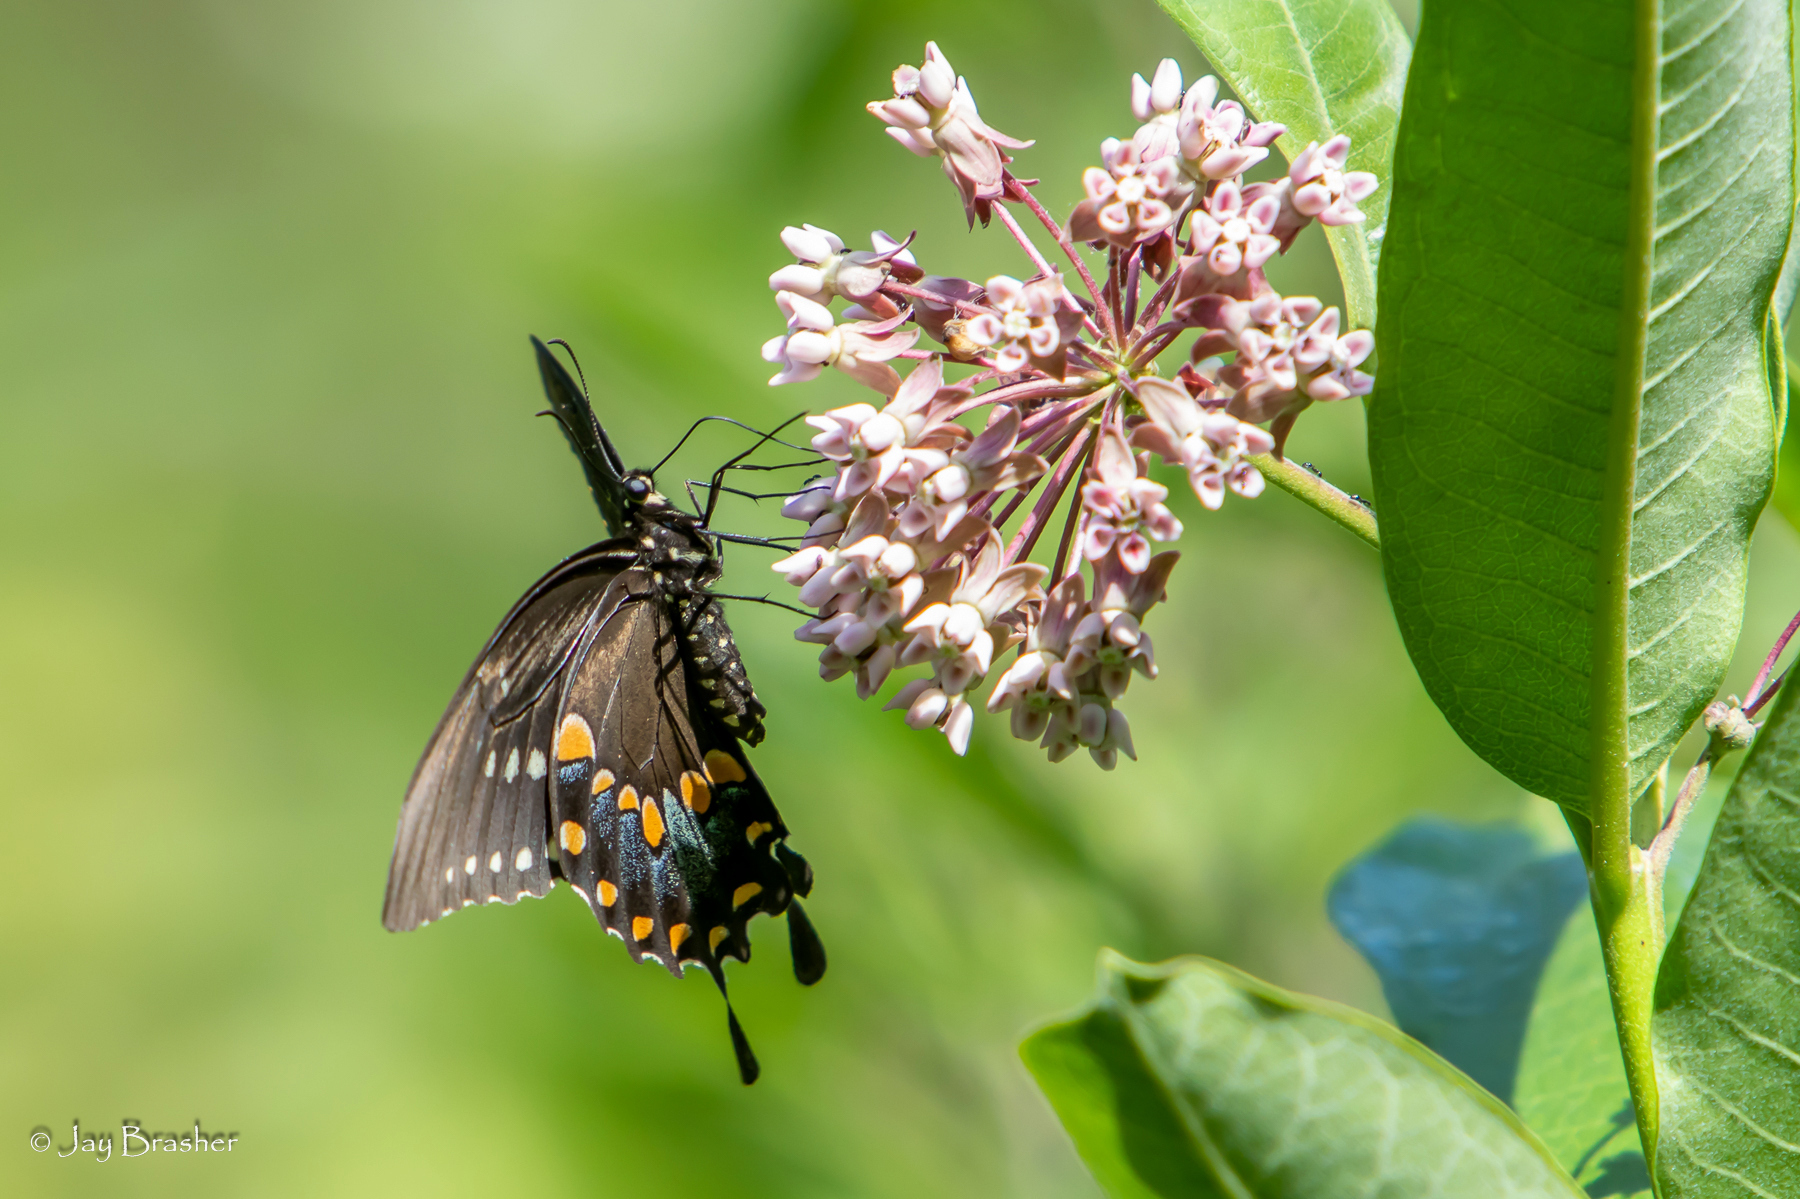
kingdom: Animalia
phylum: Arthropoda
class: Insecta
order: Lepidoptera
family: Papilionidae
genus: Papilio
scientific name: Papilio troilus
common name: Spicebush swallowtail
